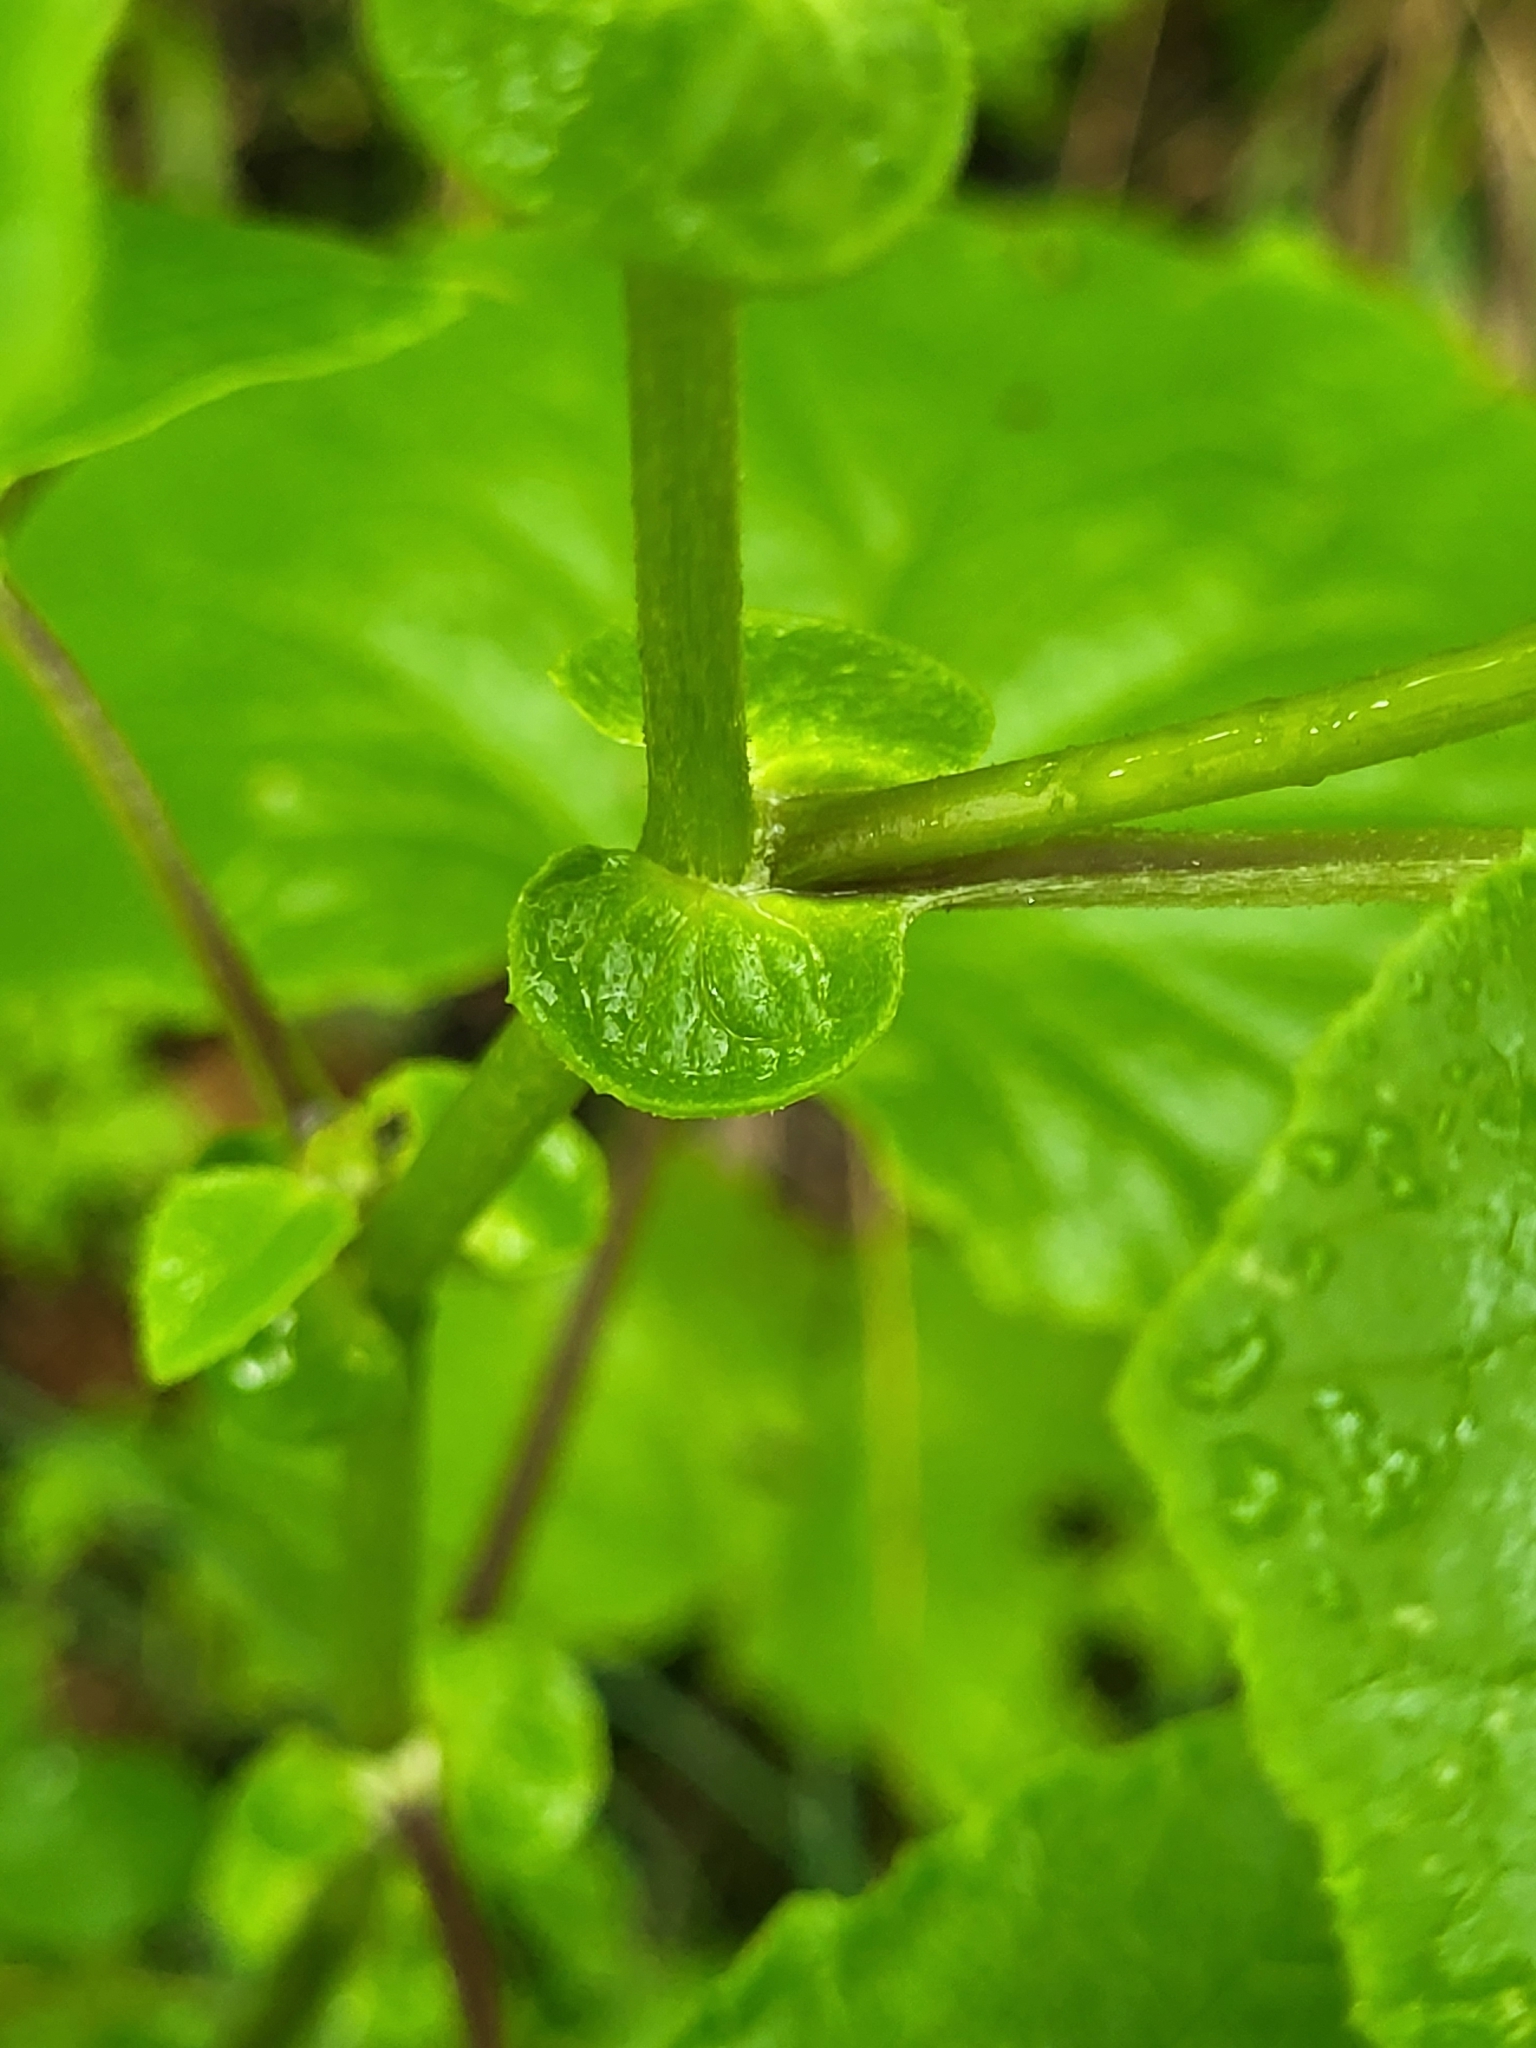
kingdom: Plantae
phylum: Tracheophyta
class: Magnoliopsida
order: Asterales
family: Asteraceae
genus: Pericallis
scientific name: Pericallis steetzii
